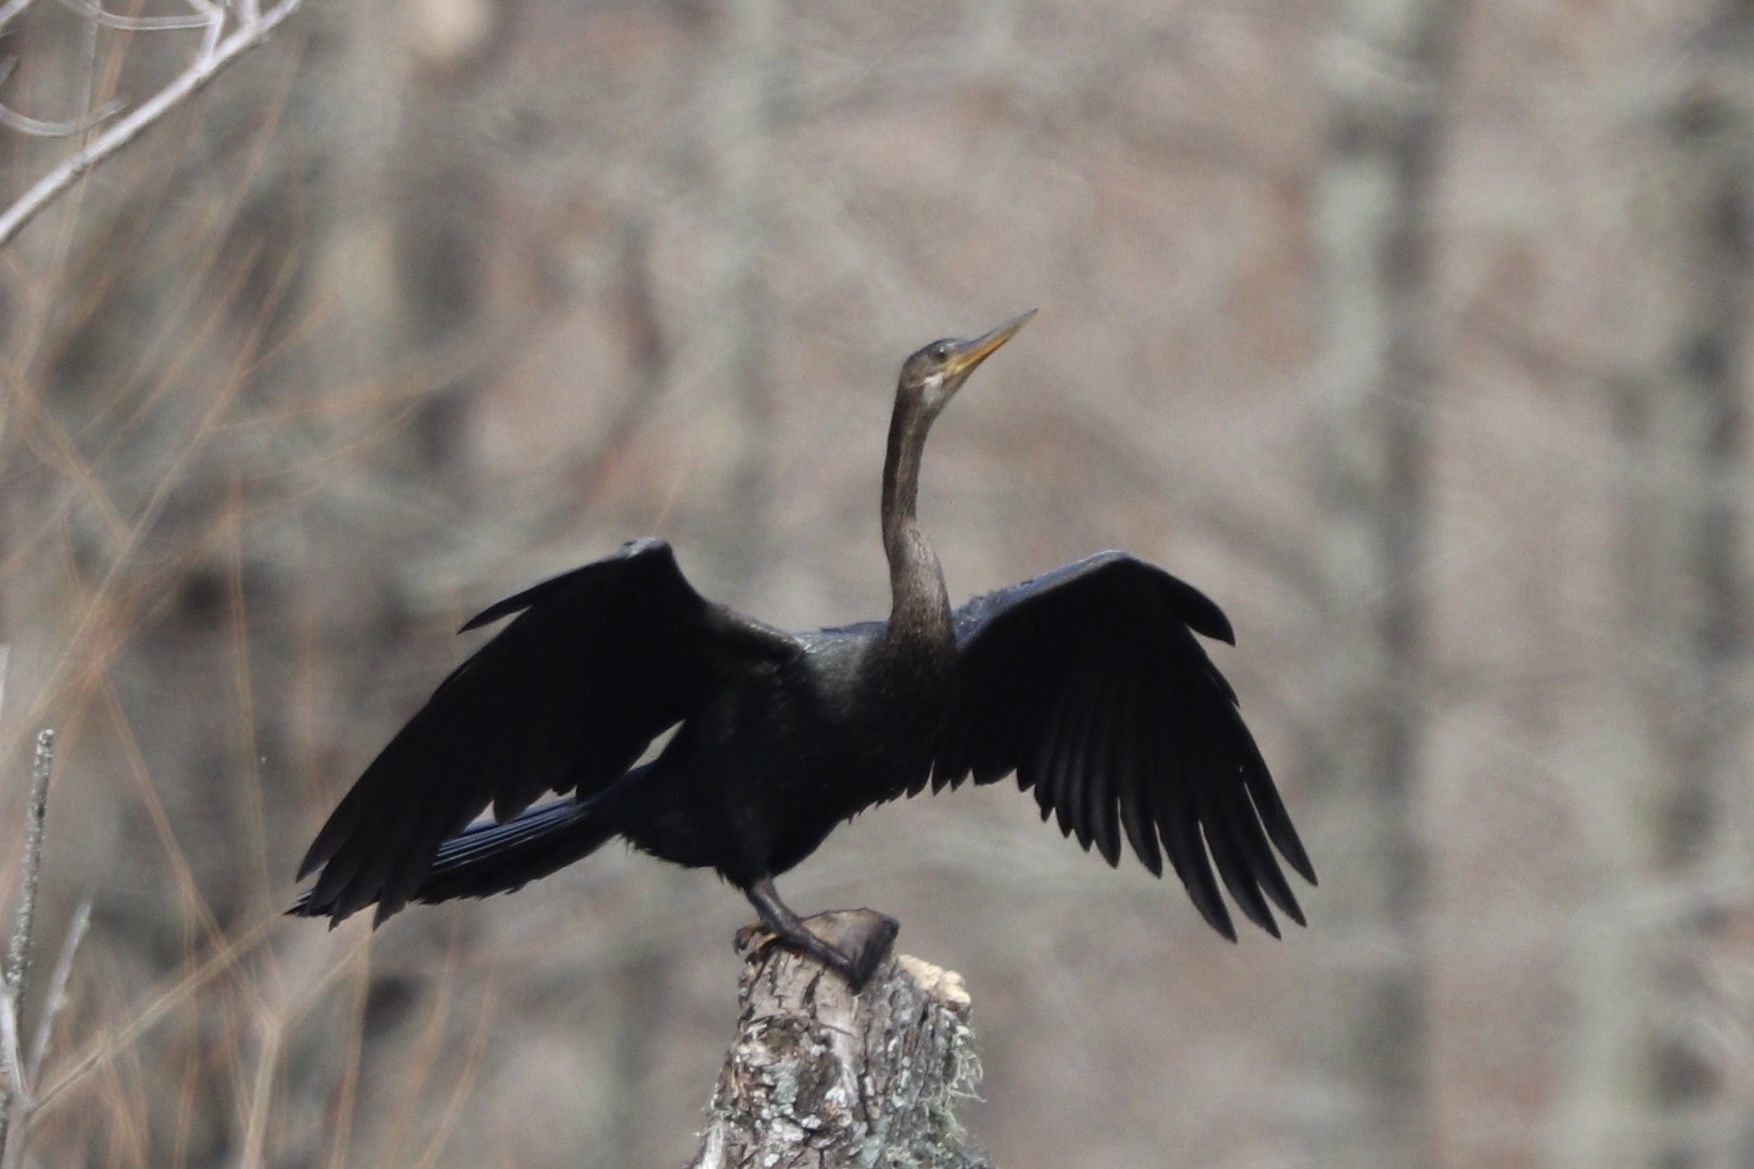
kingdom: Animalia
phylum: Chordata
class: Aves
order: Suliformes
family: Anhingidae
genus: Anhinga
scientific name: Anhinga anhinga
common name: Anhinga
